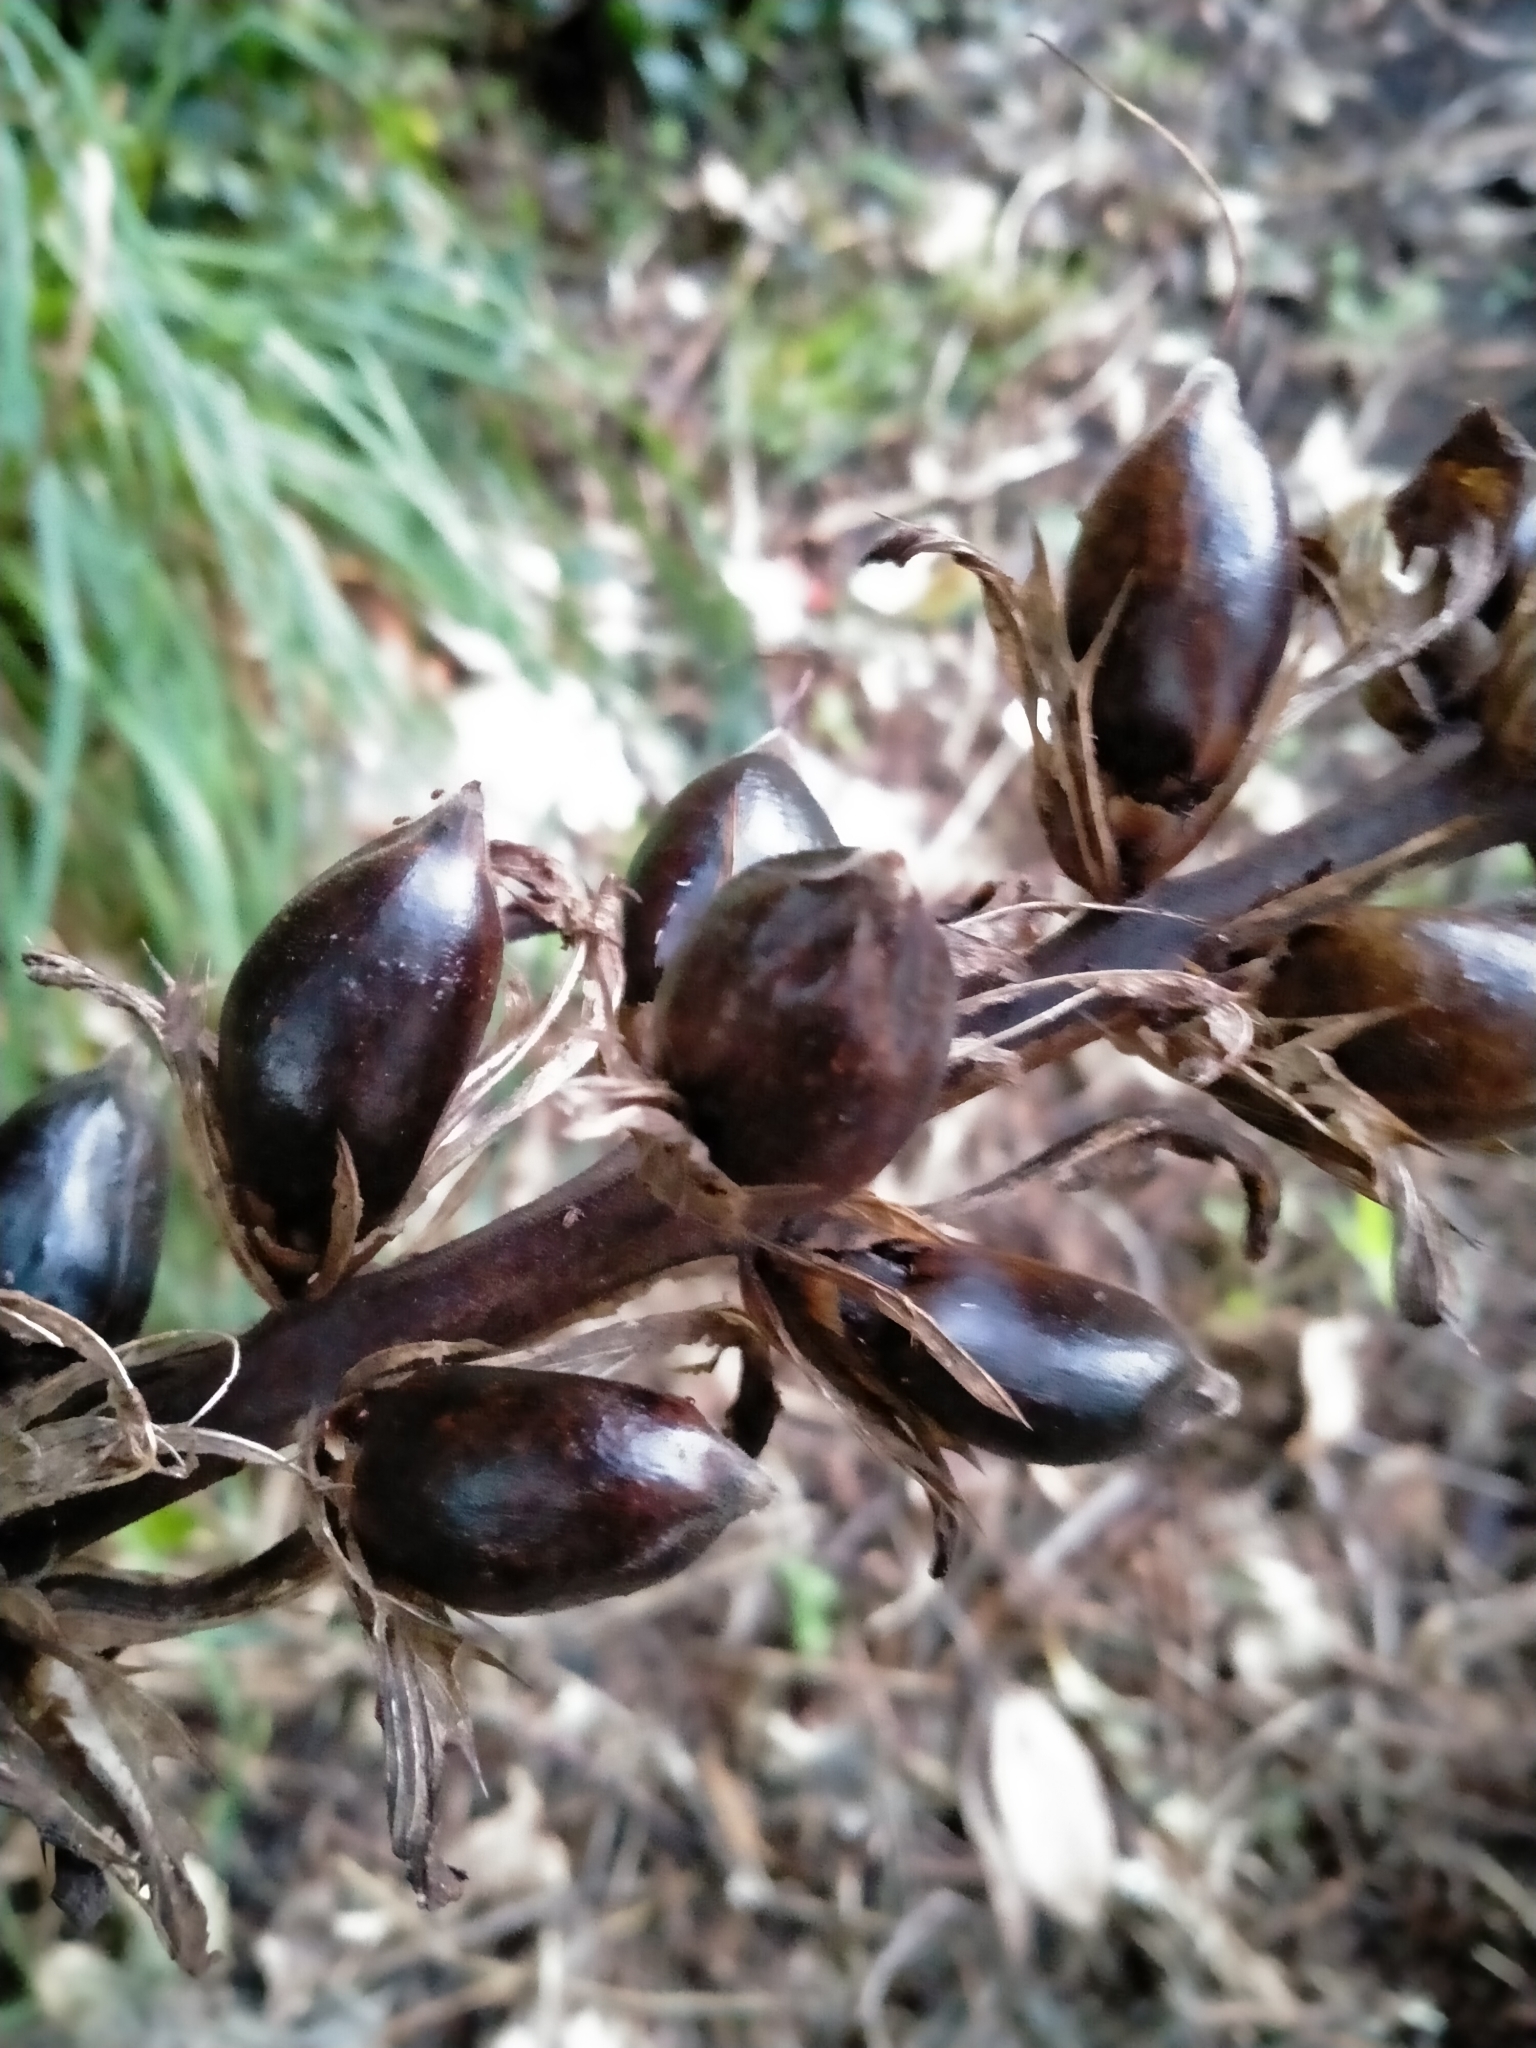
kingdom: Plantae
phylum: Tracheophyta
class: Magnoliopsida
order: Lamiales
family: Acanthaceae
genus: Acanthus
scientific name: Acanthus mollis
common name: Bear's-breech
